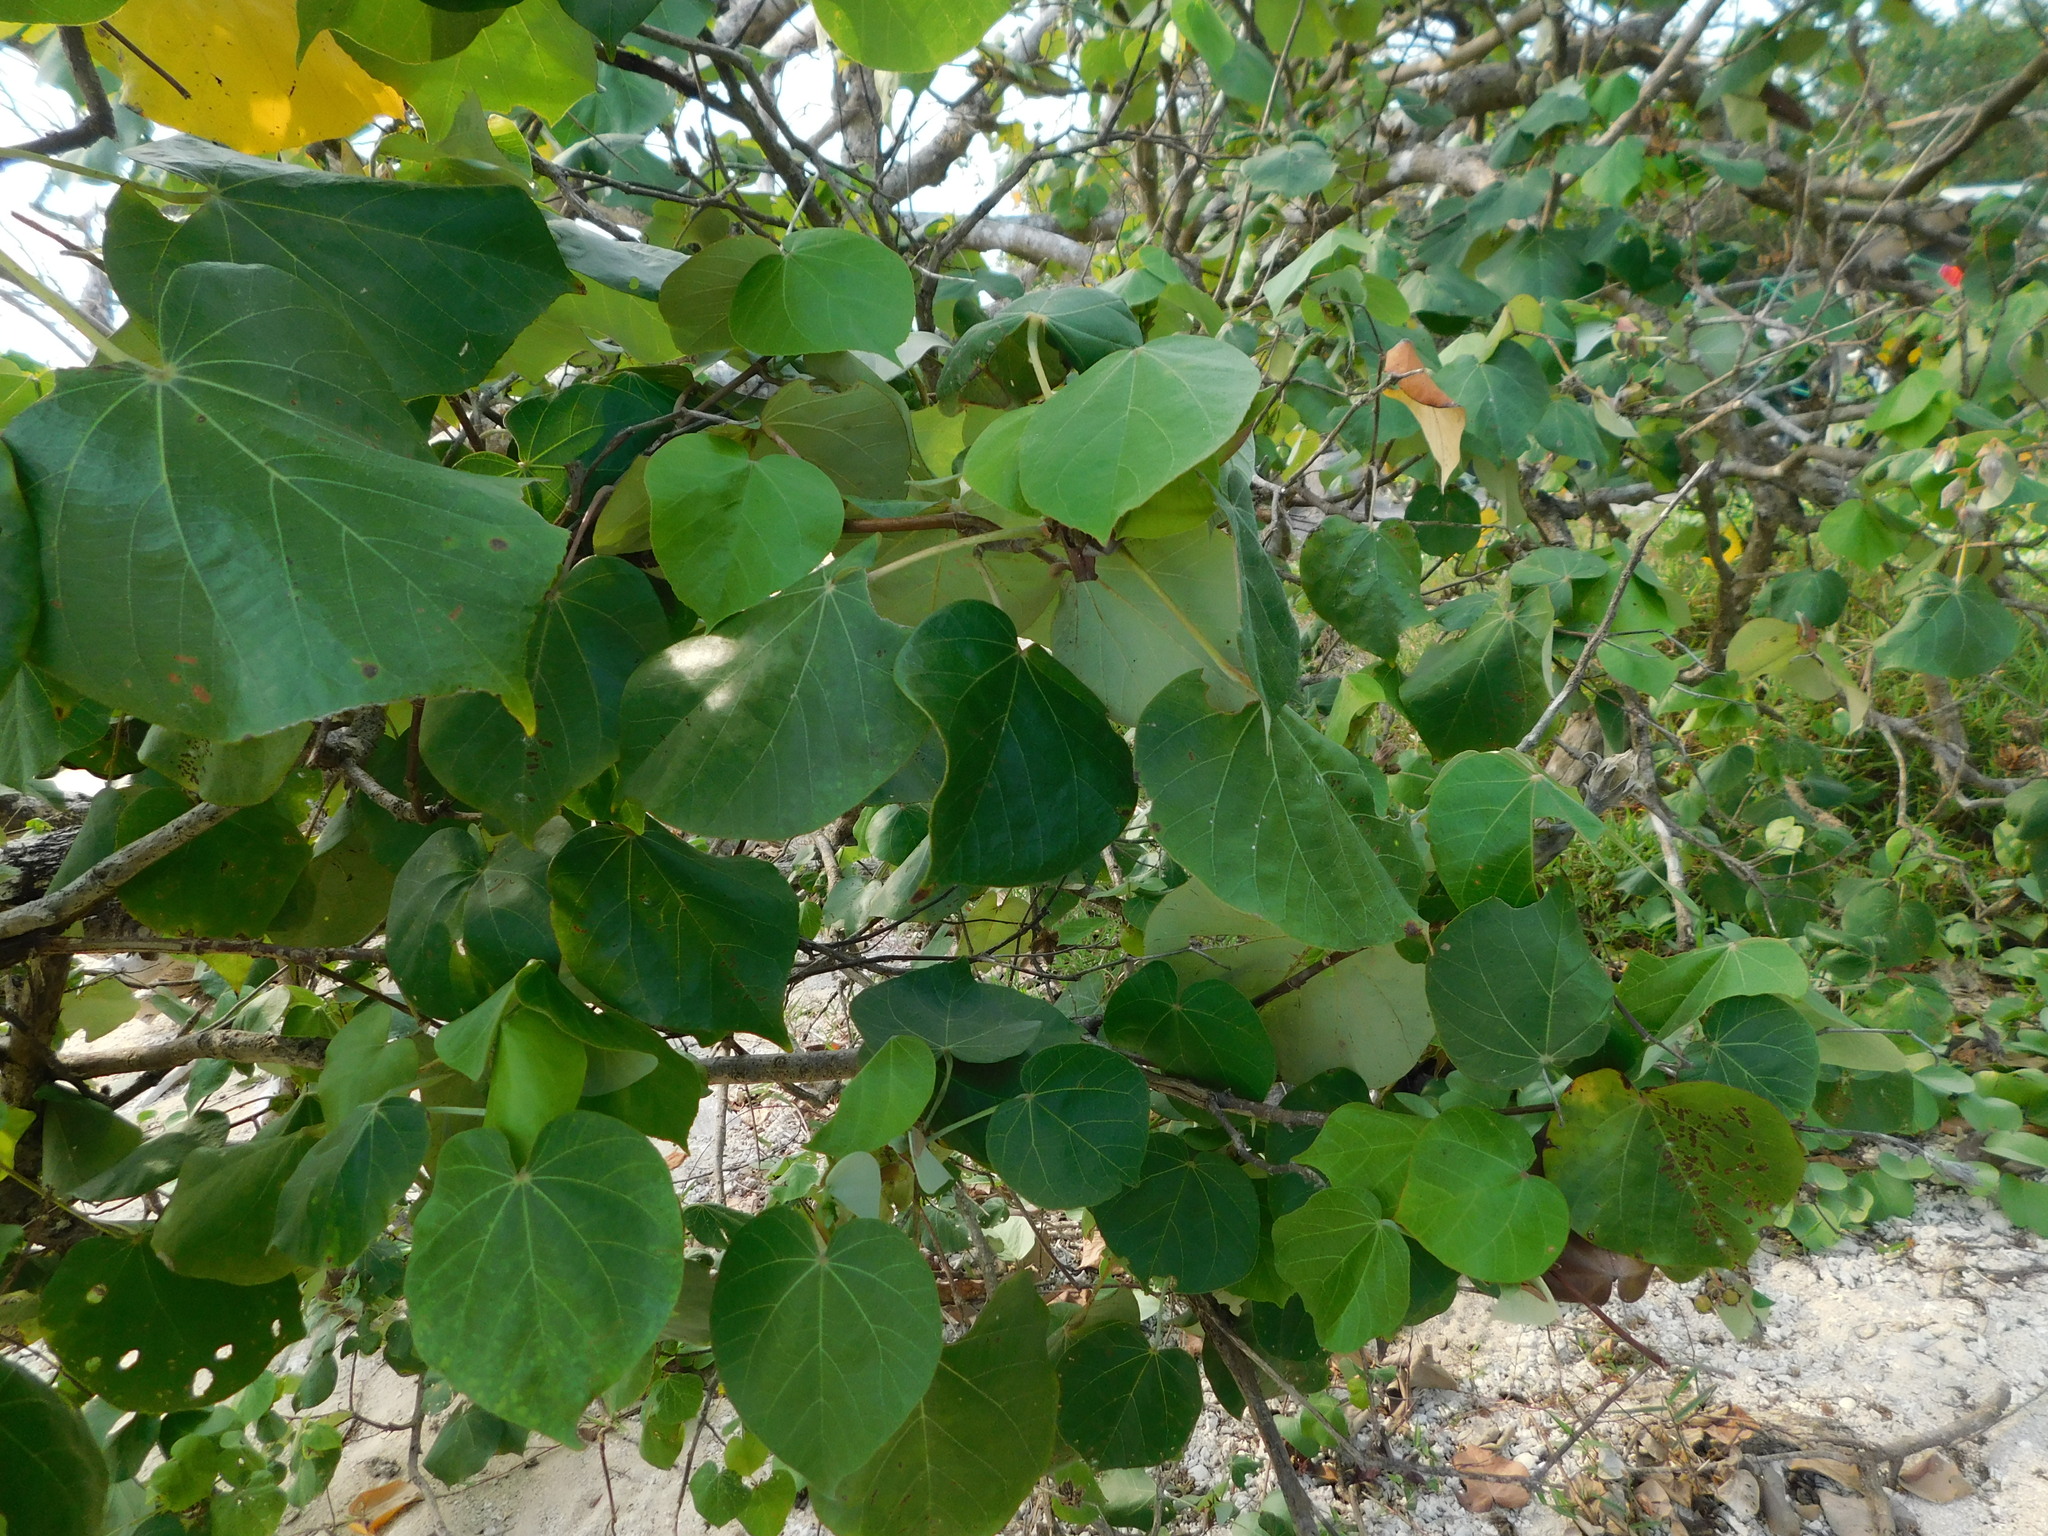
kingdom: Plantae
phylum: Tracheophyta
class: Magnoliopsida
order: Malvales
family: Malvaceae
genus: Talipariti
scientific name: Talipariti tiliaceum
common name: Sea hibiscus
